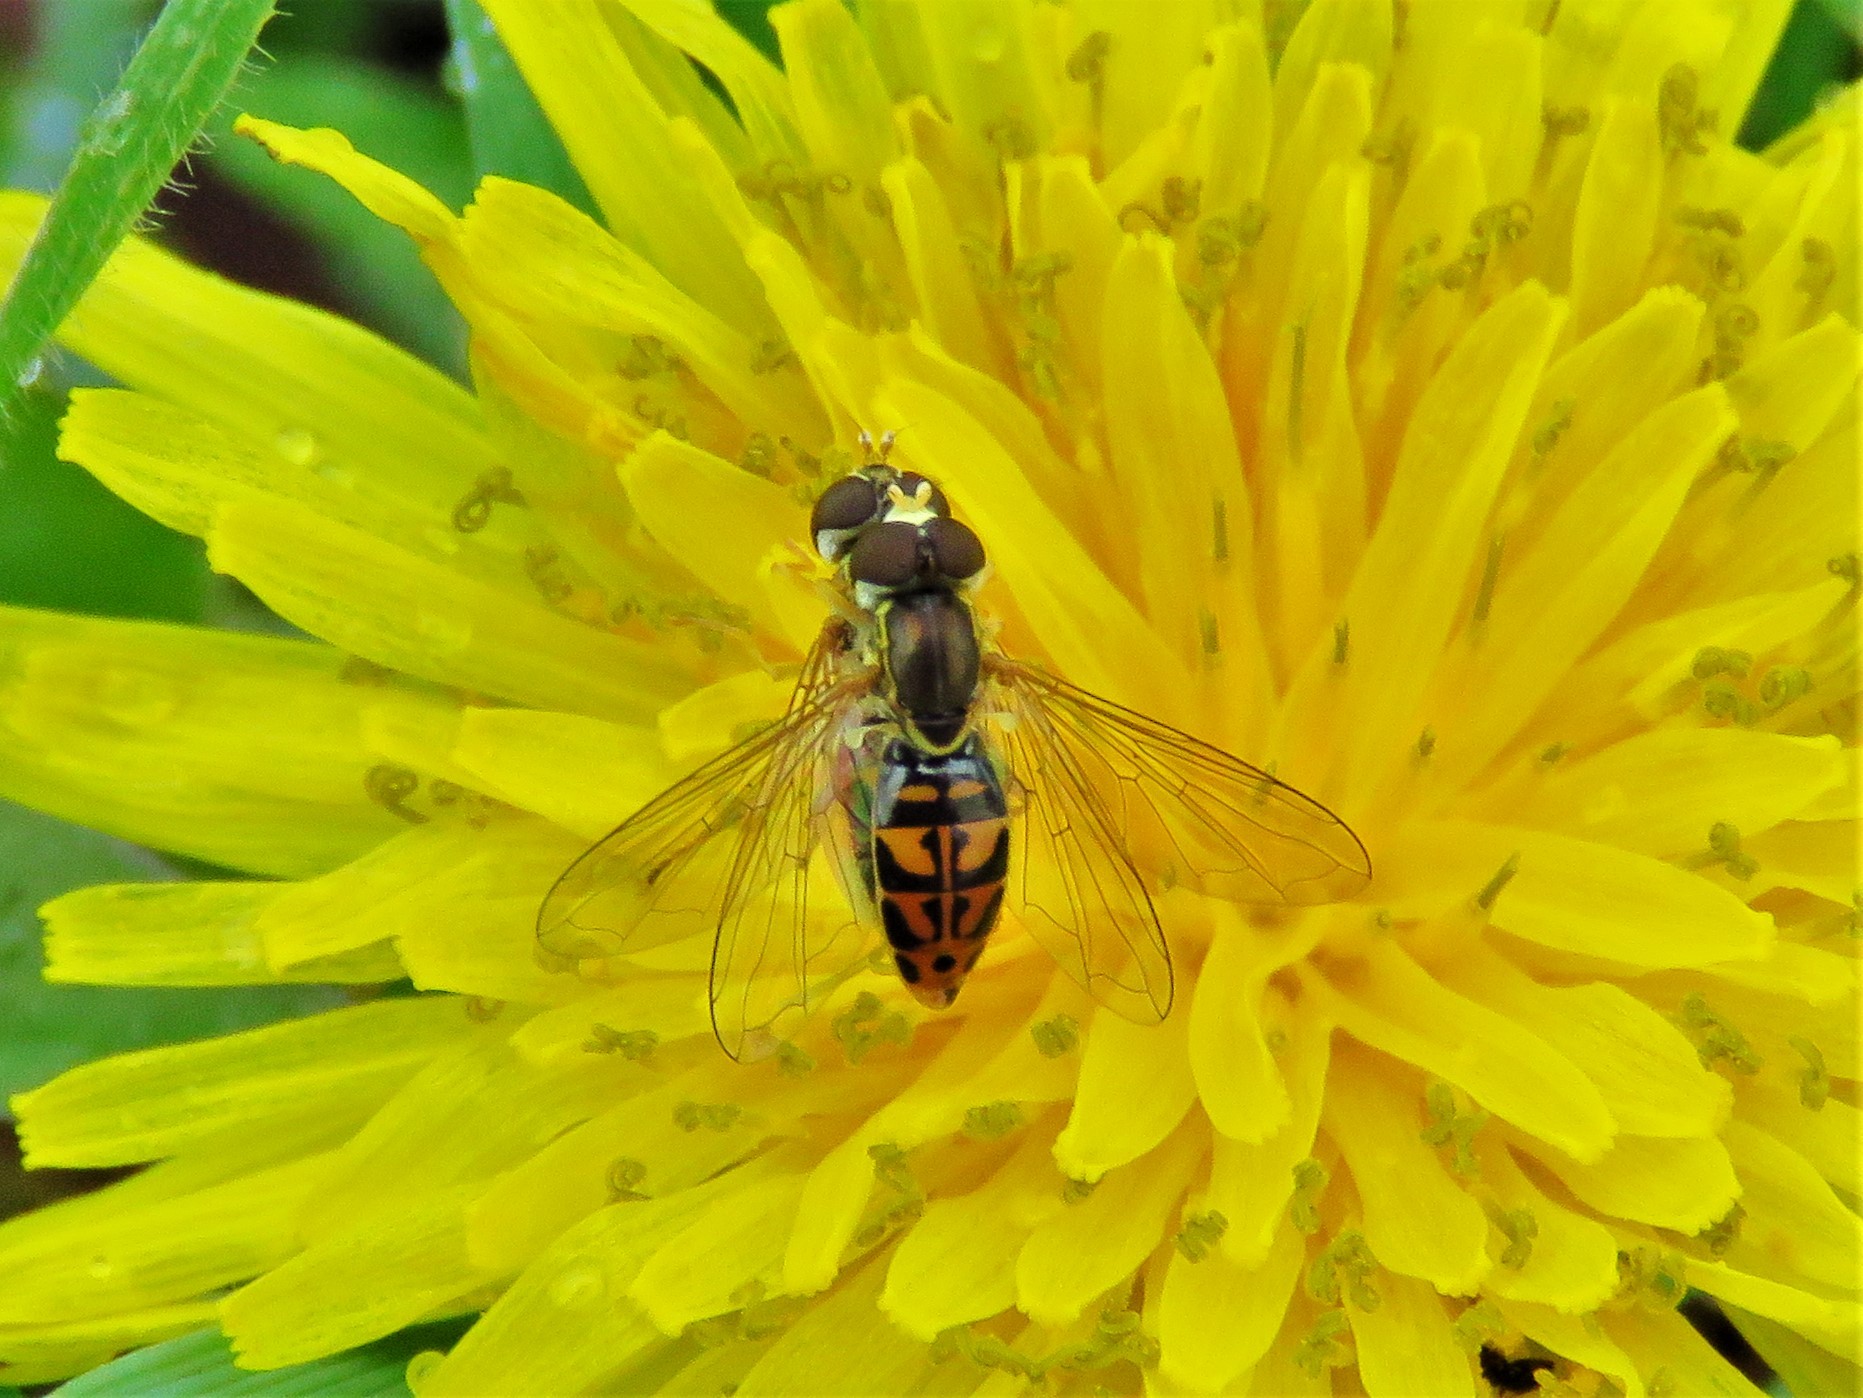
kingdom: Animalia
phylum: Arthropoda
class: Insecta
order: Diptera
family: Syrphidae
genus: Toxomerus
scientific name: Toxomerus marginatus
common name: Syrphid fly
